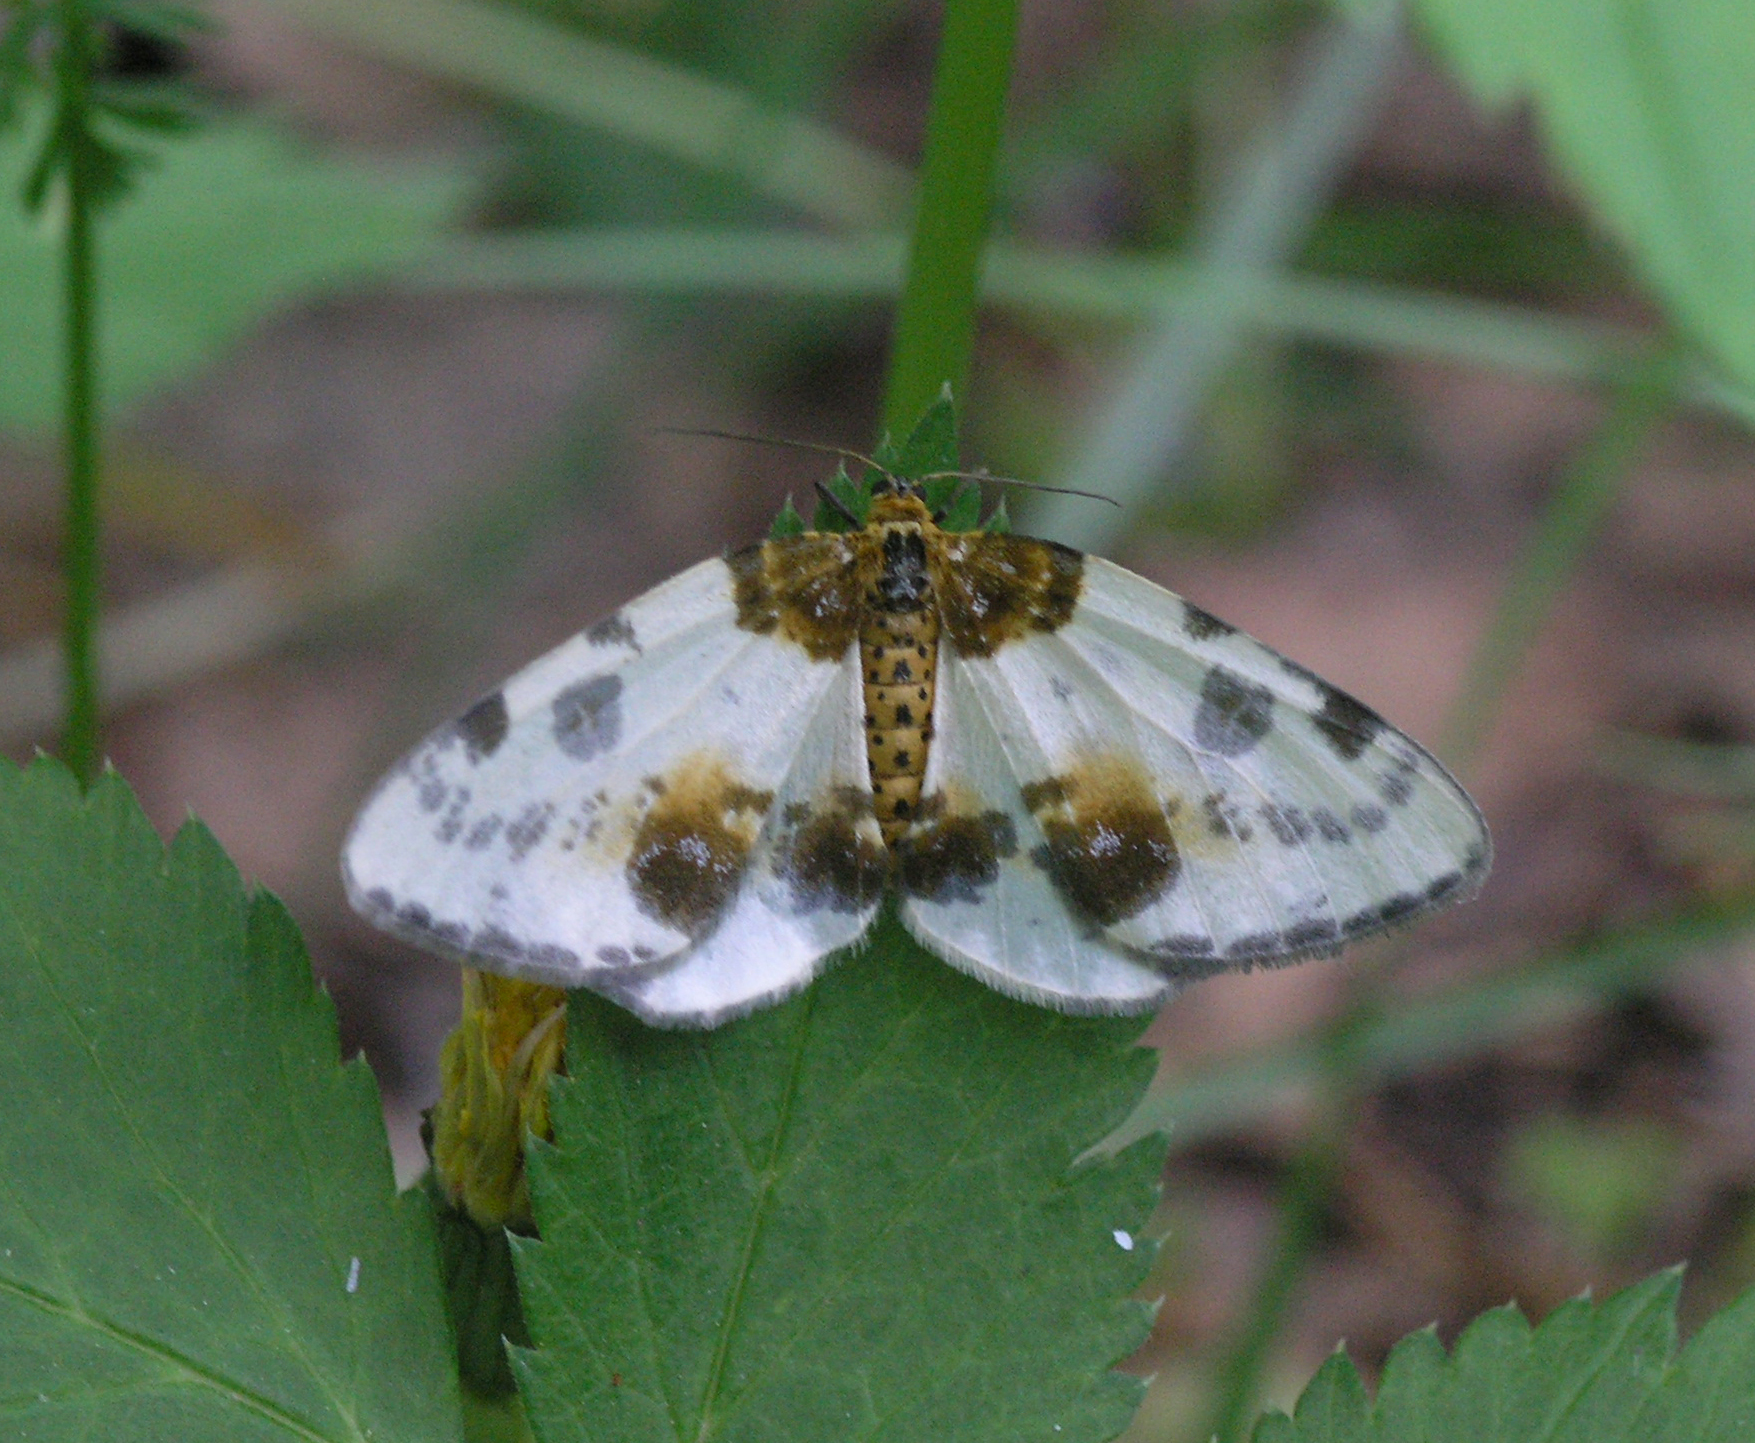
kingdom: Animalia
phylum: Arthropoda
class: Insecta
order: Lepidoptera
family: Geometridae
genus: Abraxas
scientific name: Abraxas sylvata
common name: Clouded magpie
